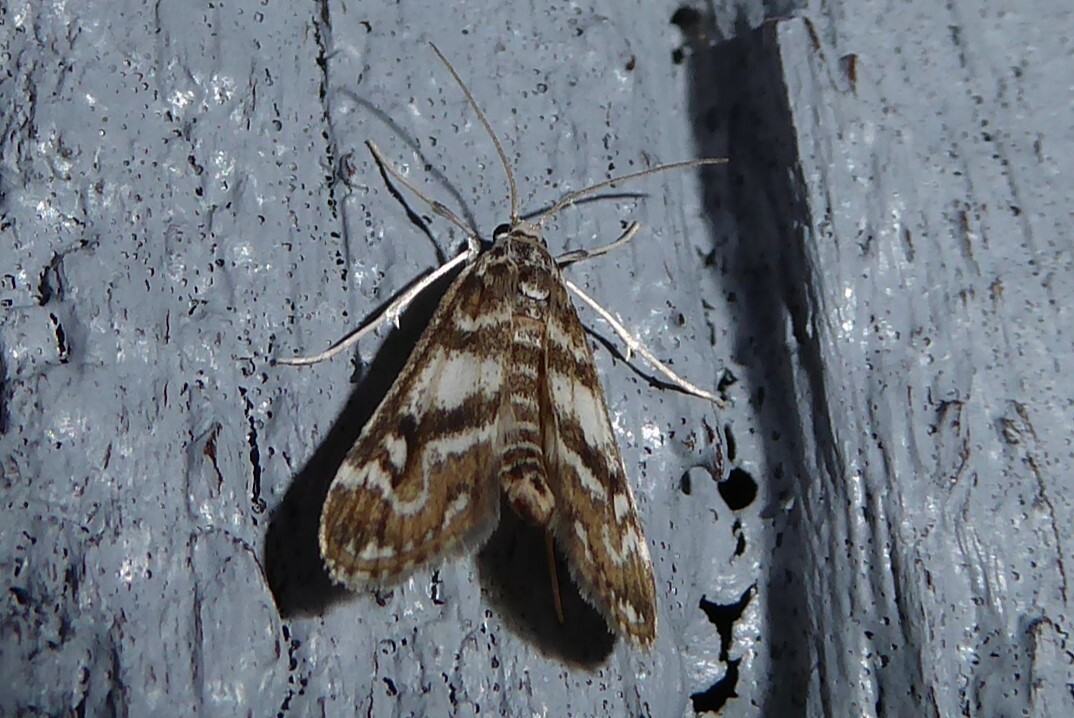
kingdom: Animalia
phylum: Arthropoda
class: Insecta
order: Lepidoptera
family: Crambidae
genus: Hygraula
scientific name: Hygraula nitens
